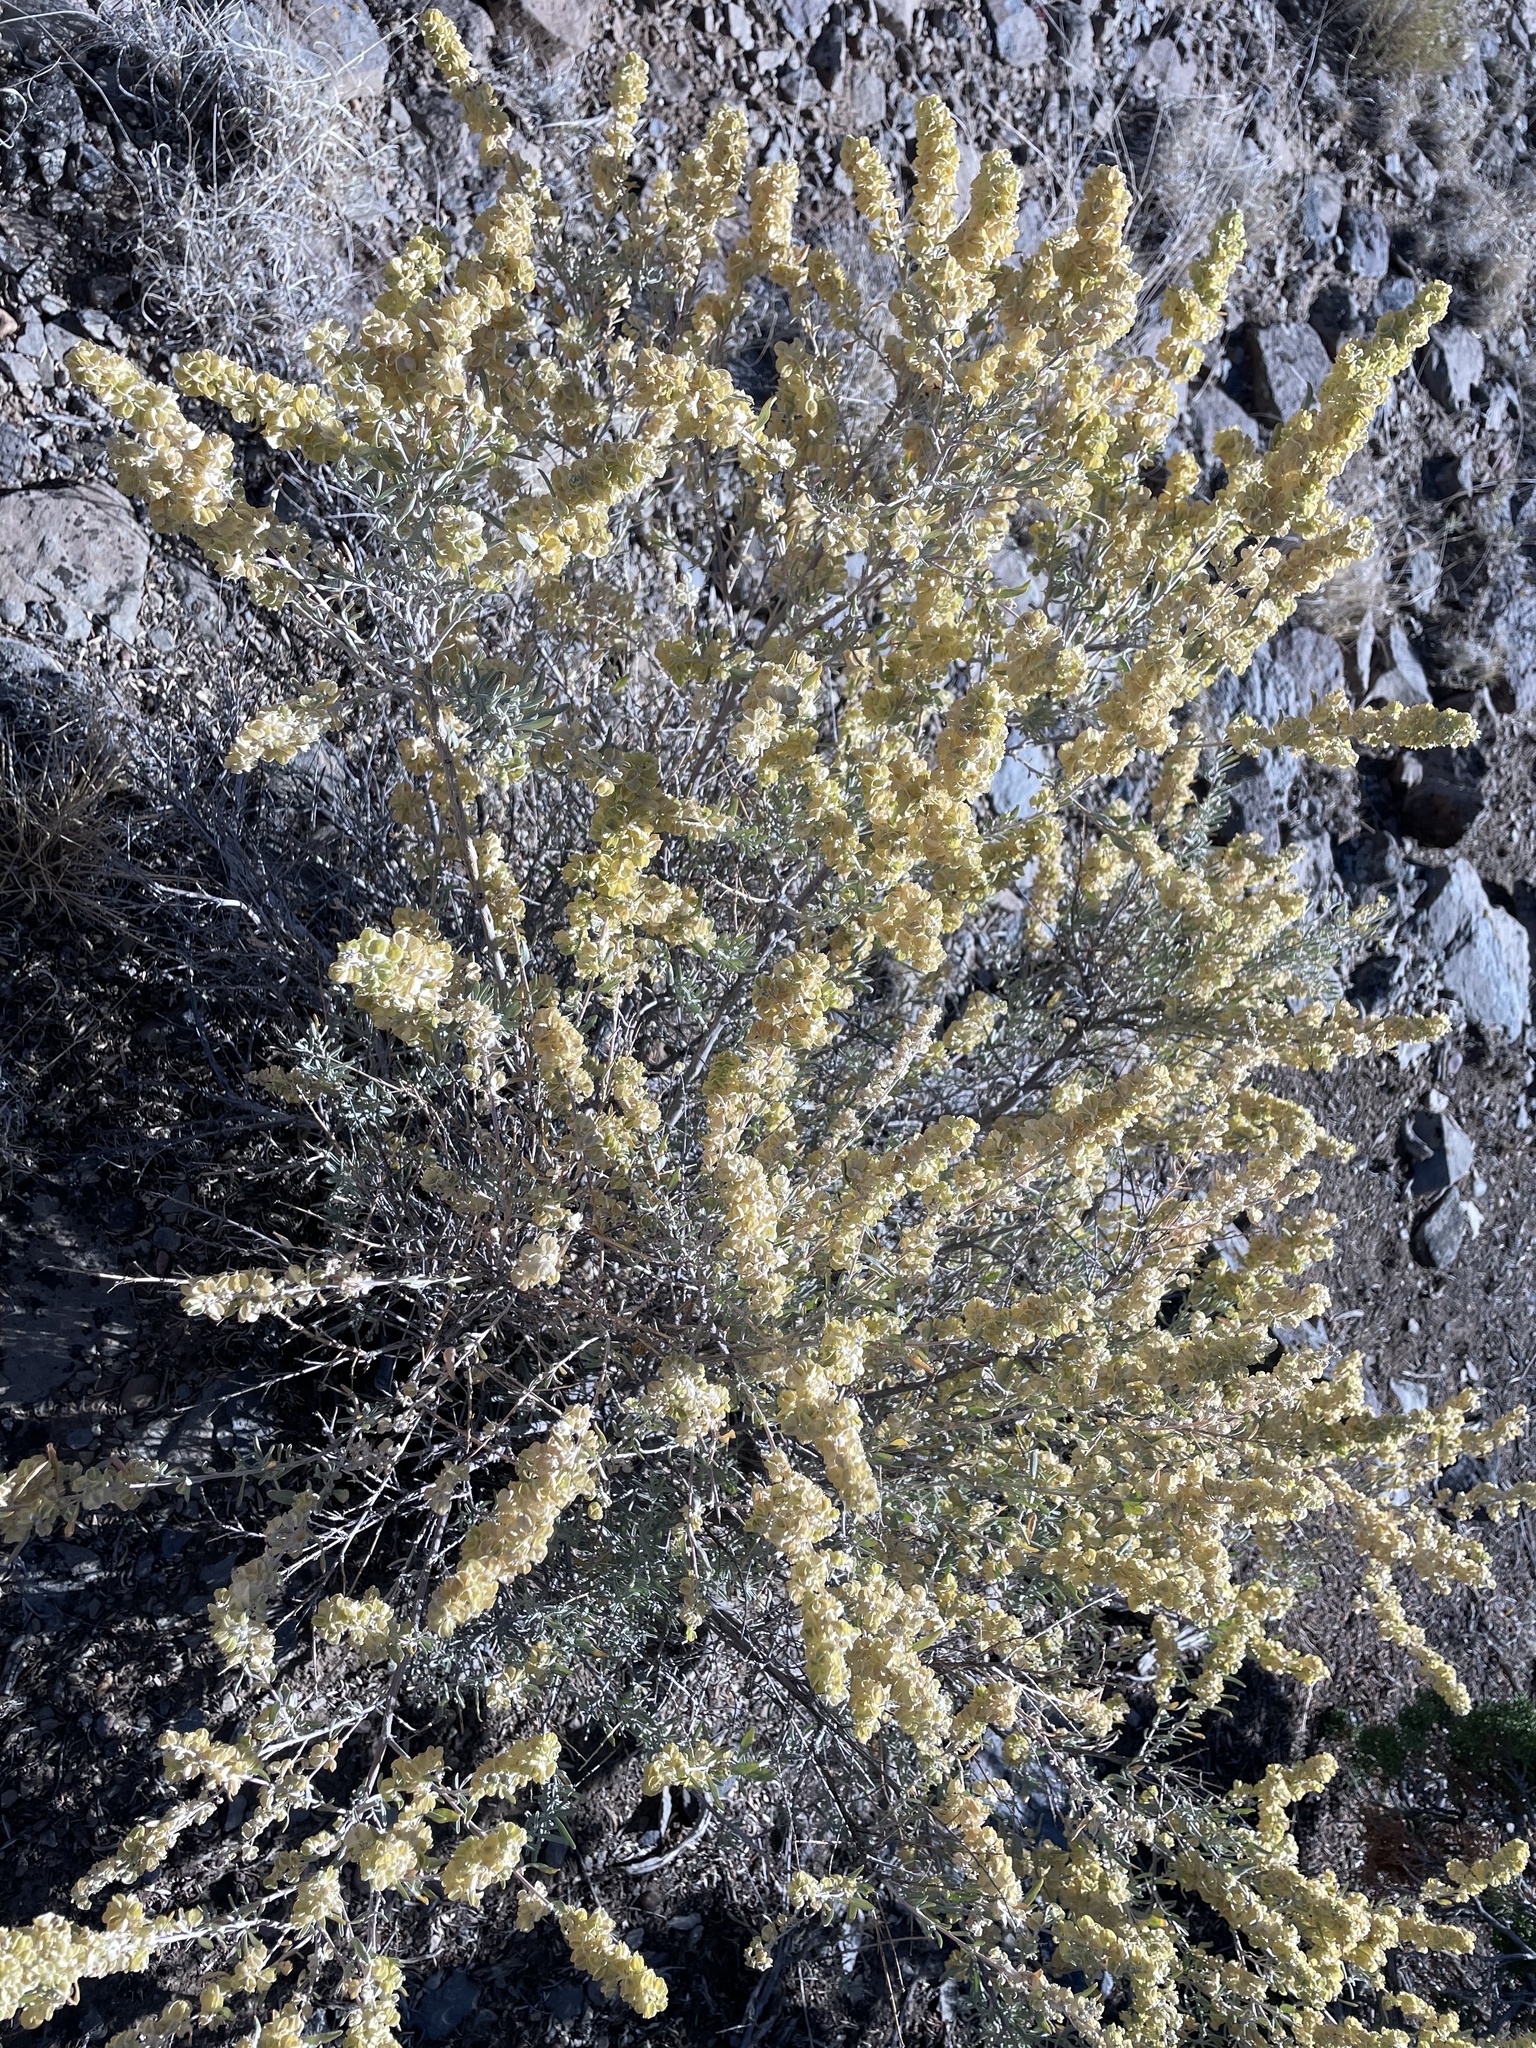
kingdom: Plantae
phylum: Tracheophyta
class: Magnoliopsida
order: Caryophyllales
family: Amaranthaceae
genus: Atriplex
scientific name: Atriplex canescens
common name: Four-wing saltbush
